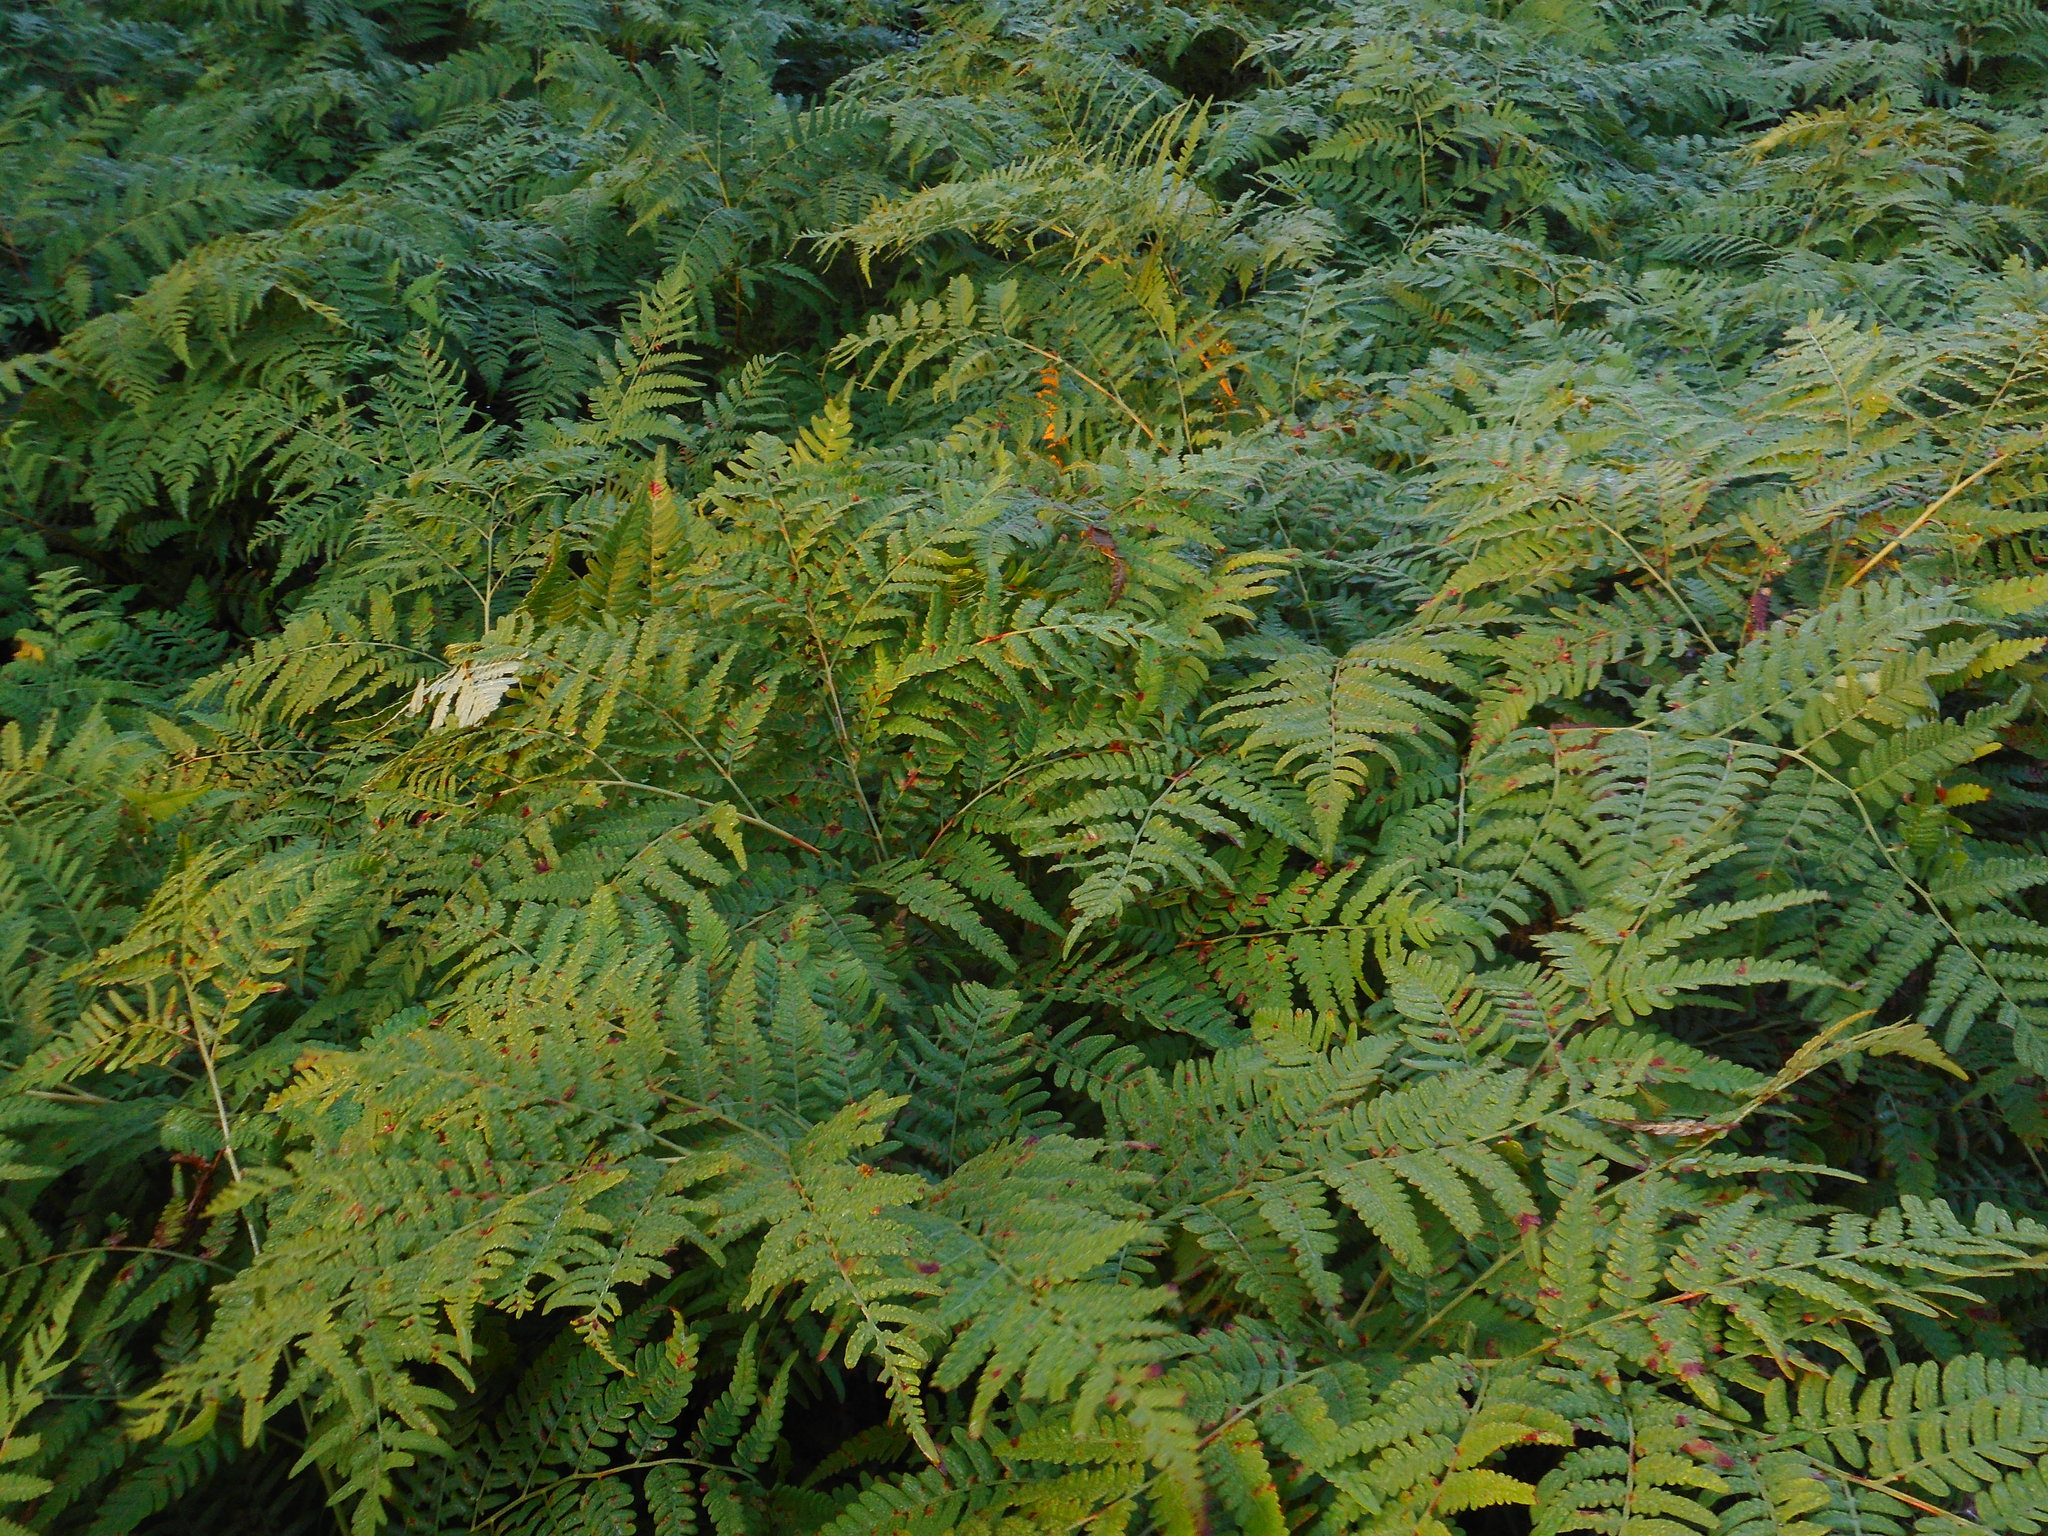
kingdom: Plantae
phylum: Tracheophyta
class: Polypodiopsida
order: Polypodiales
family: Dennstaedtiaceae
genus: Pteridium
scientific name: Pteridium aquilinum
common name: Bracken
